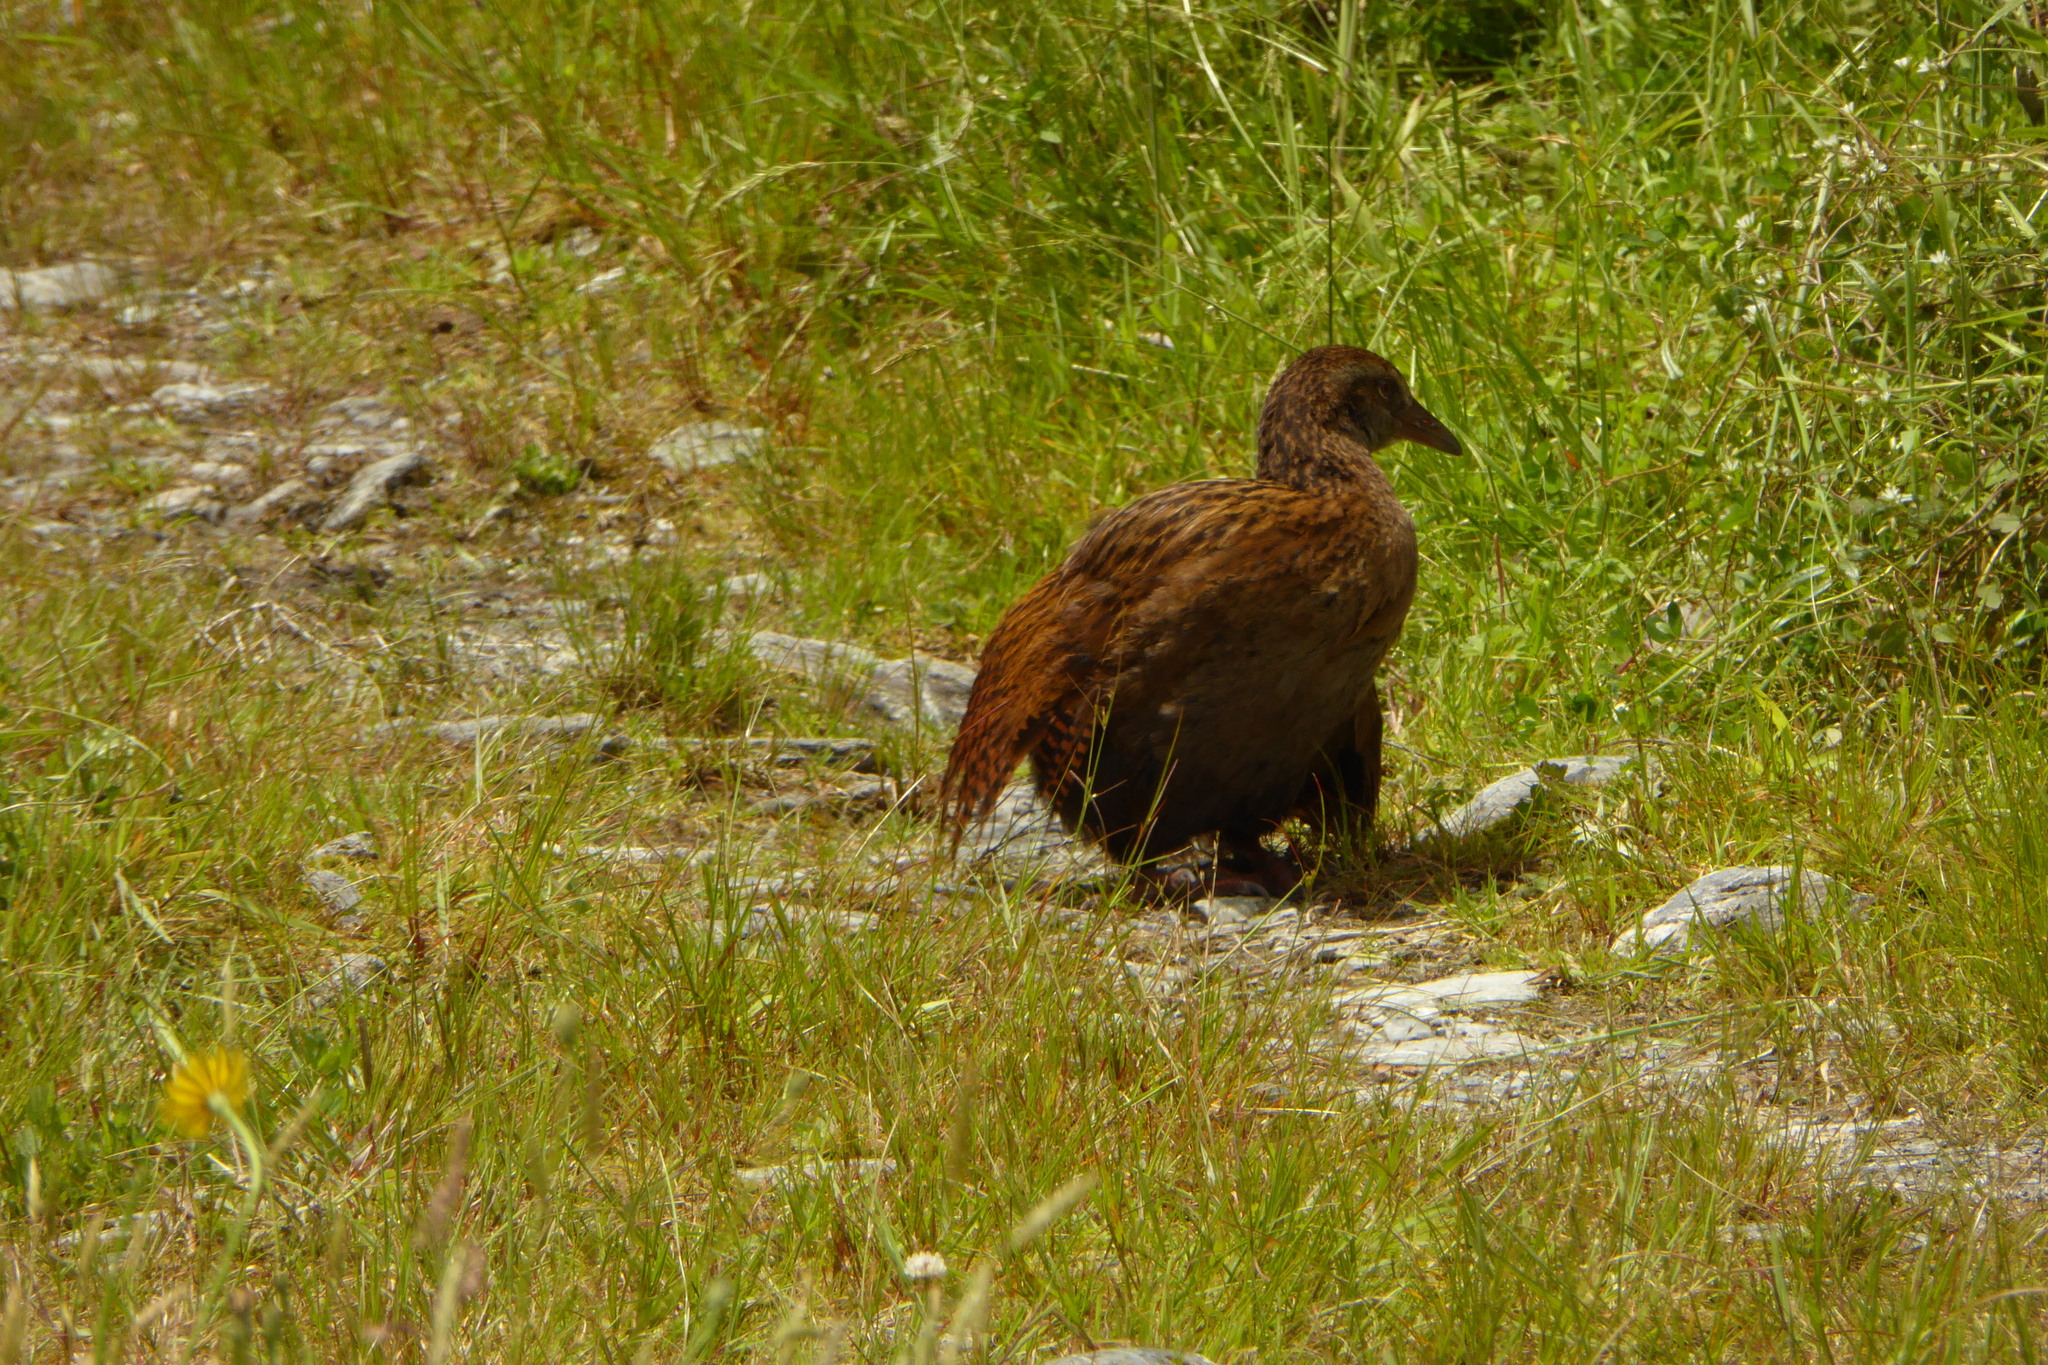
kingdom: Animalia
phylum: Chordata
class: Aves
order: Gruiformes
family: Rallidae
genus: Gallirallus
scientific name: Gallirallus australis
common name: Weka
